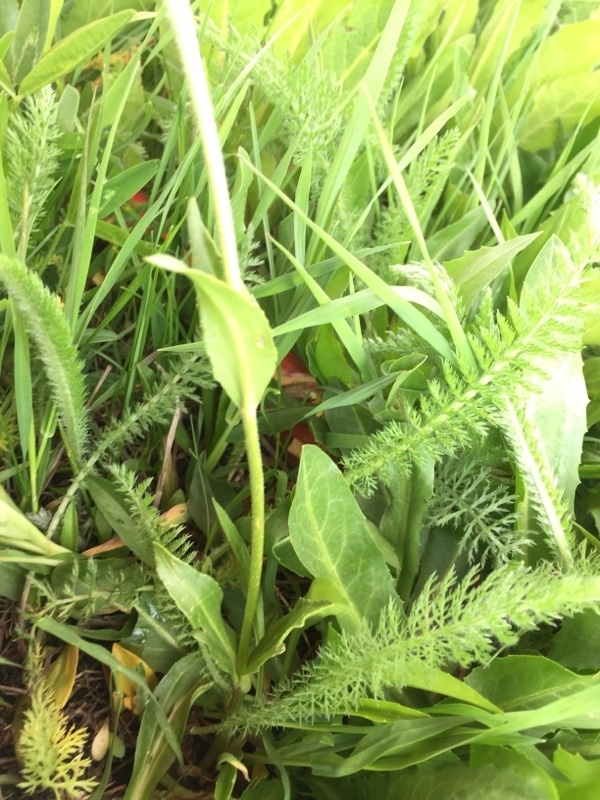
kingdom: Plantae
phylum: Tracheophyta
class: Magnoliopsida
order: Lamiales
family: Plantaginaceae
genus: Veronica
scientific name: Veronica gentianoides
